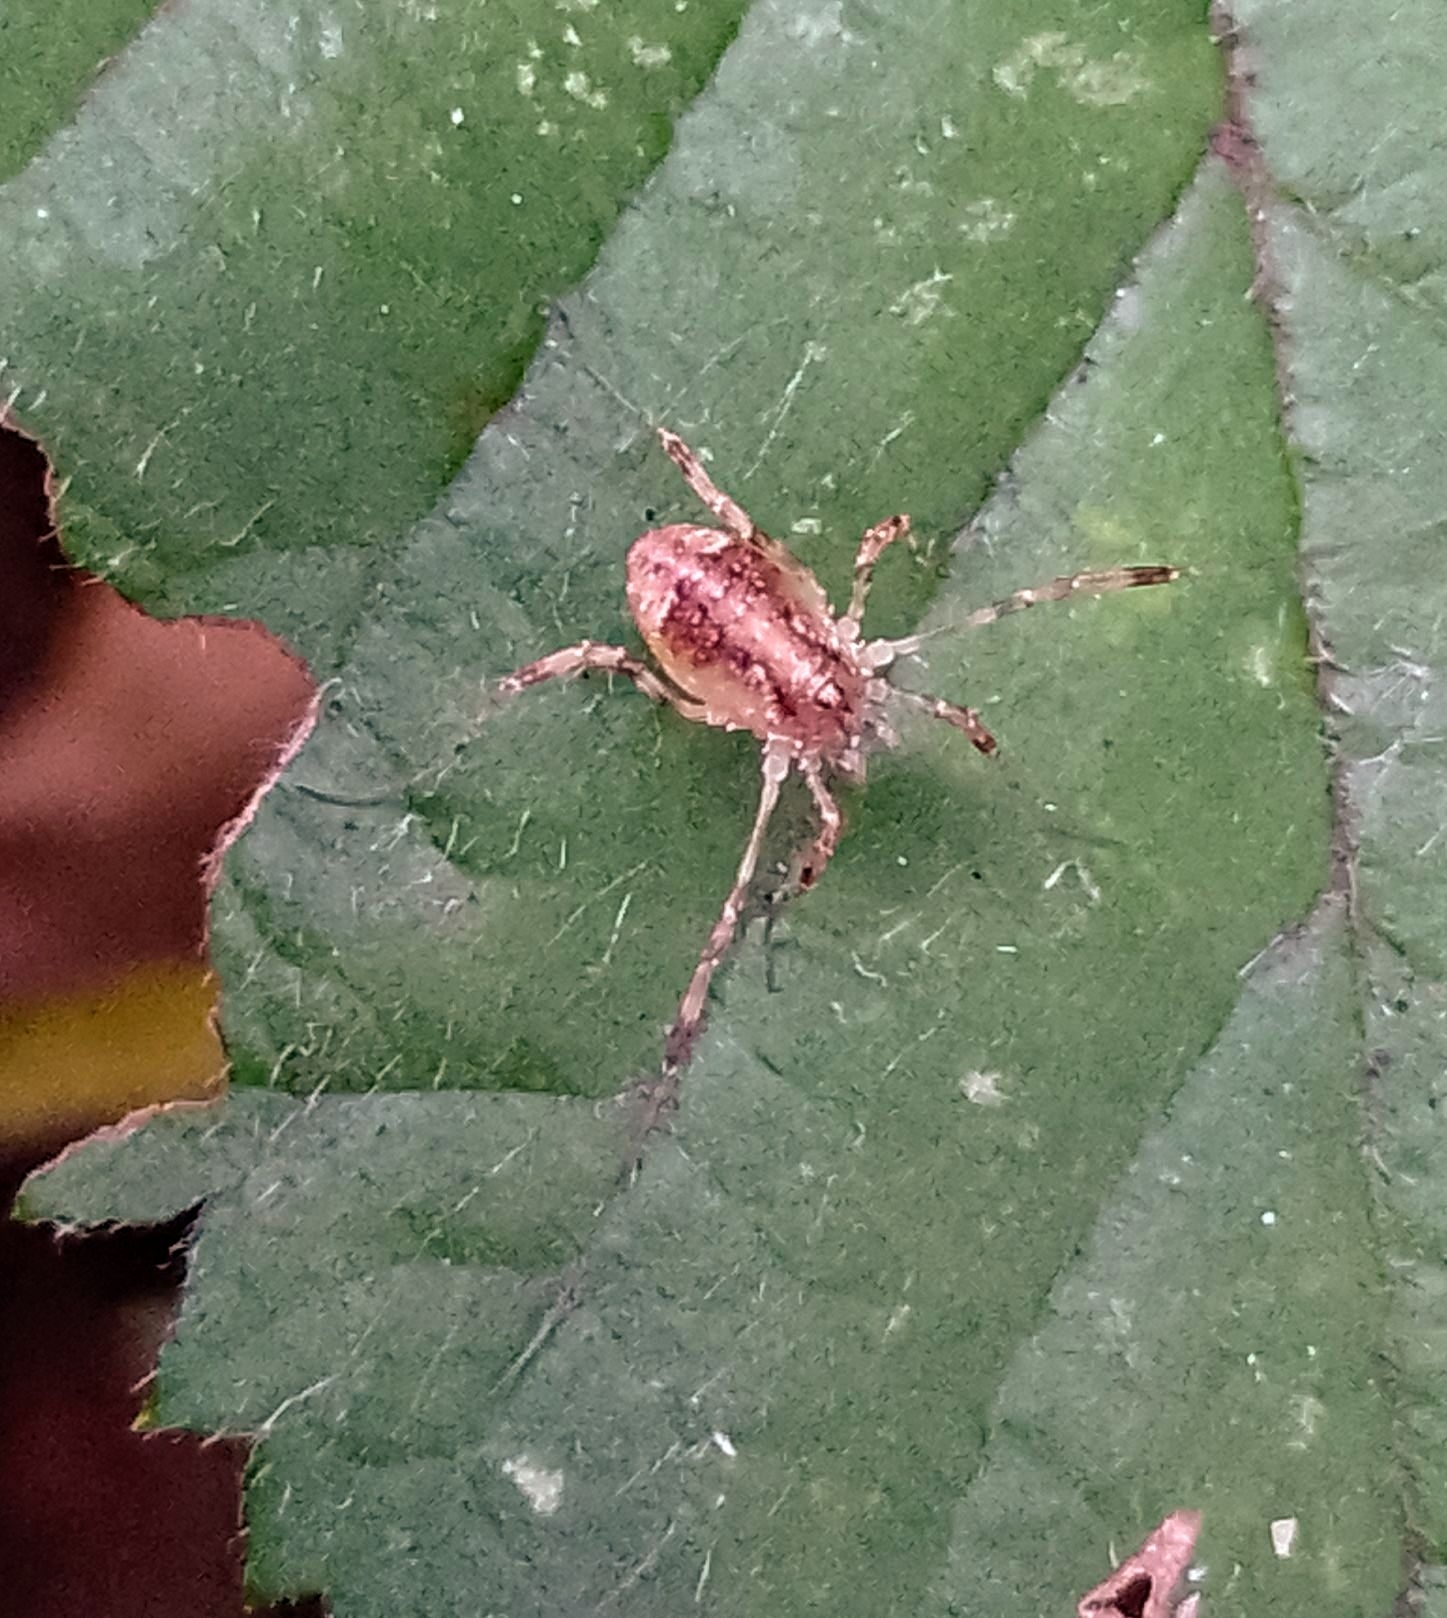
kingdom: Animalia
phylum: Arthropoda
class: Arachnida
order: Opiliones
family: Phalangiidae
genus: Paroligolophus
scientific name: Paroligolophus agrestis
